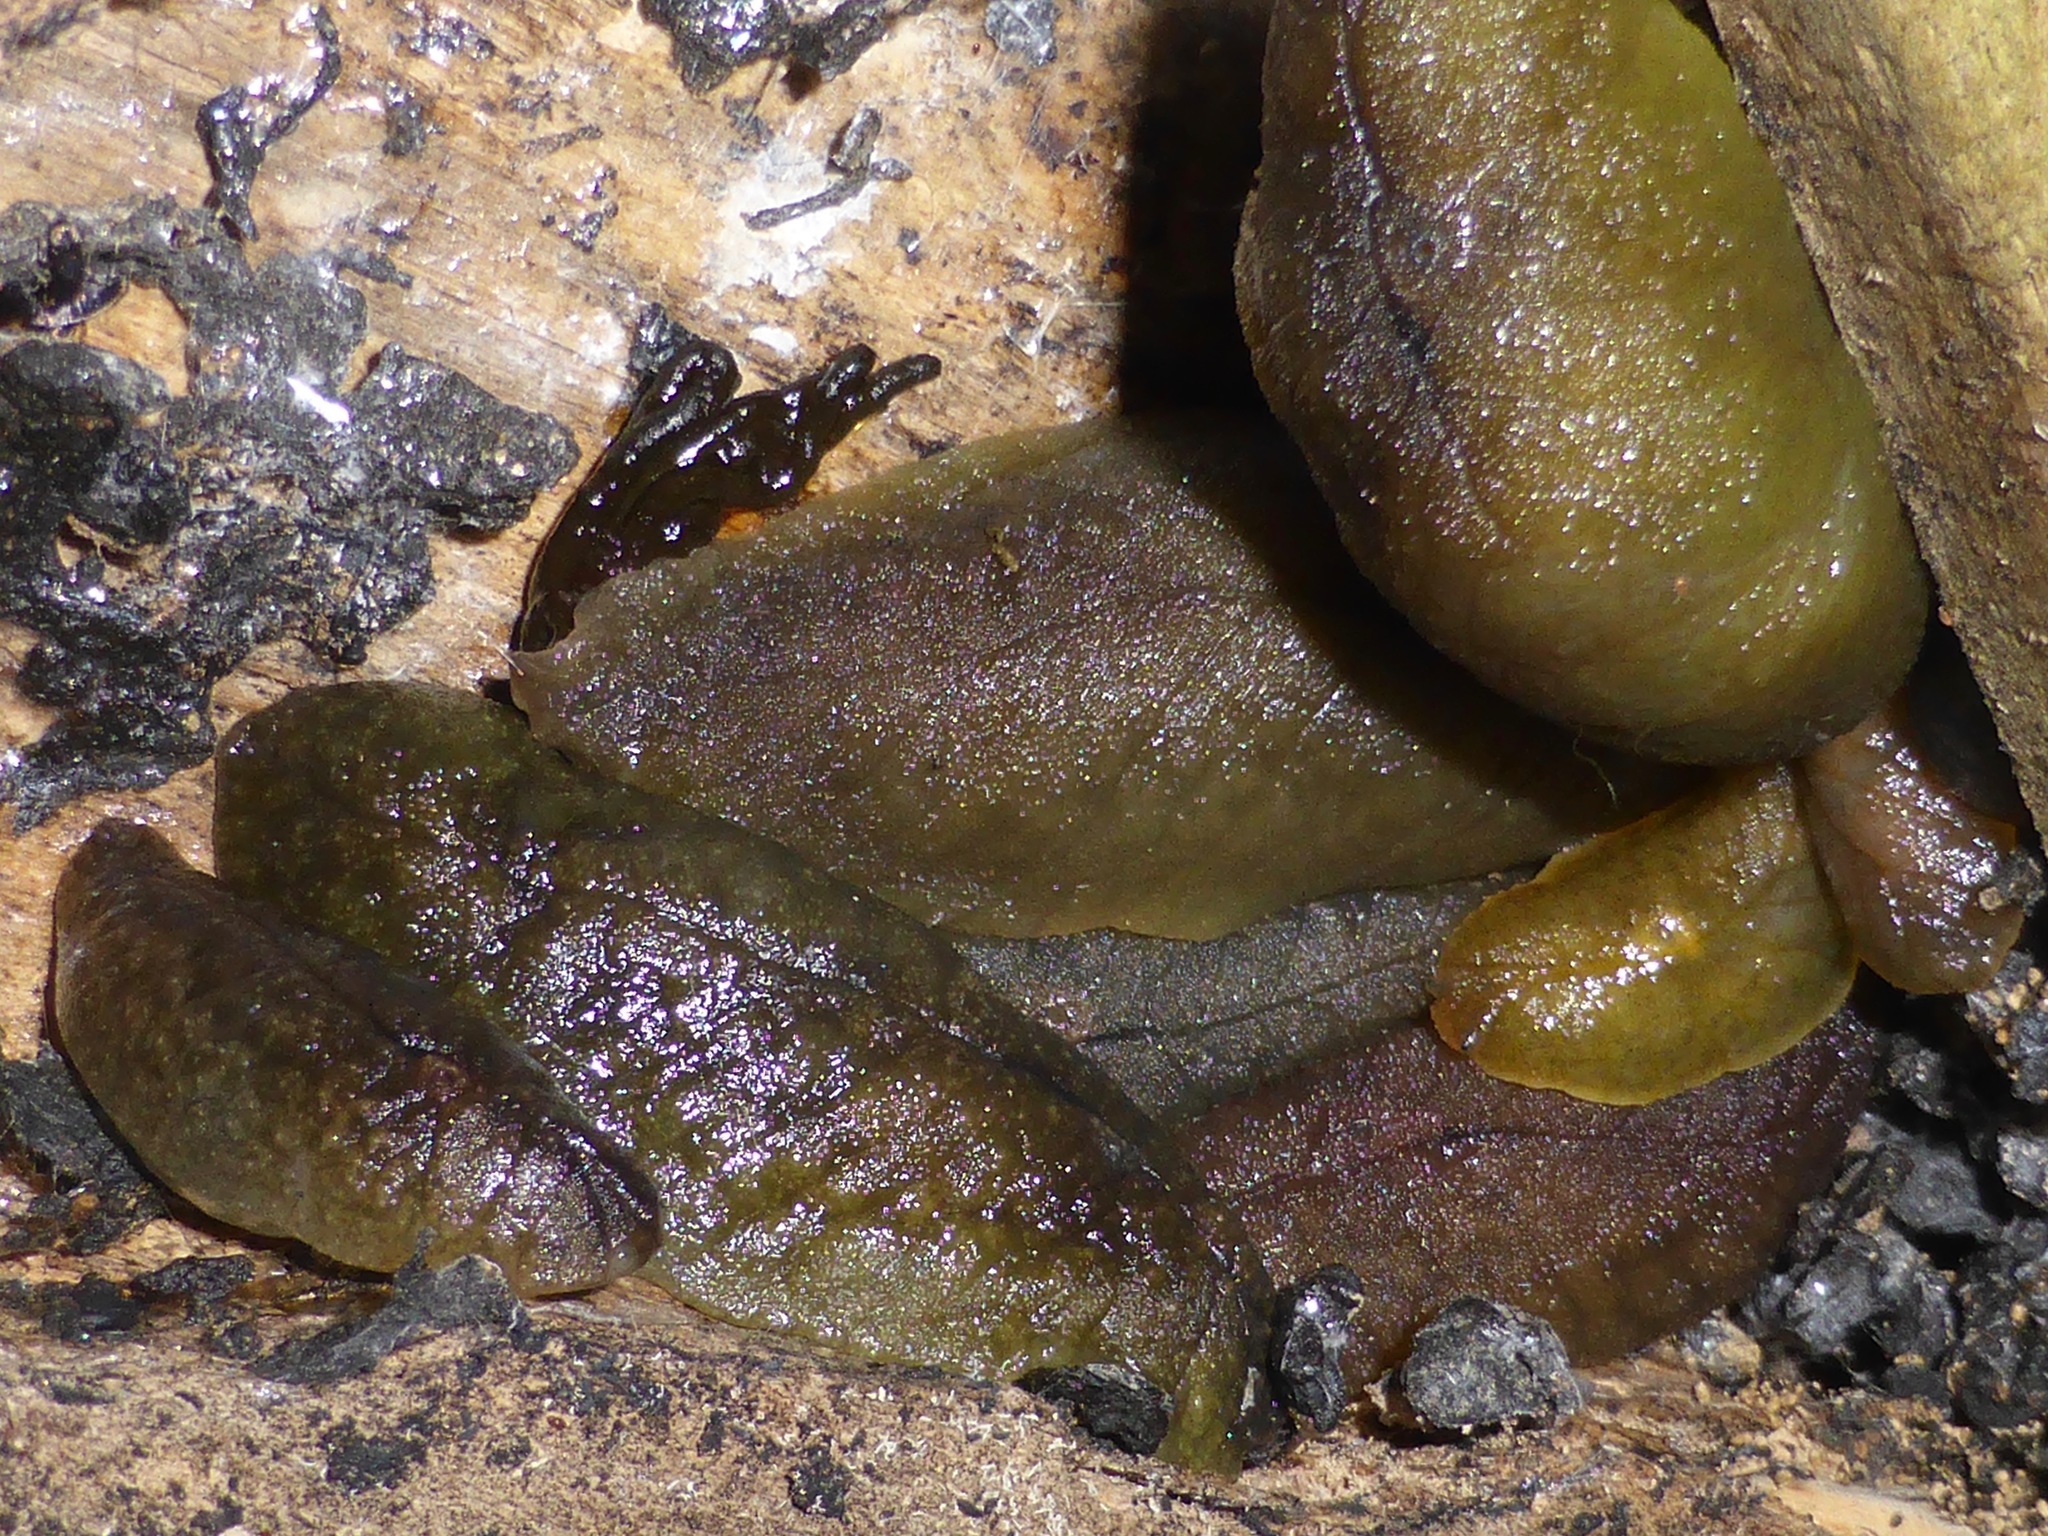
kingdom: Animalia
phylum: Mollusca
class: Gastropoda
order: Stylommatophora
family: Athoracophoridae
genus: Pseudaneitea
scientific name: Pseudaneitea maculata
